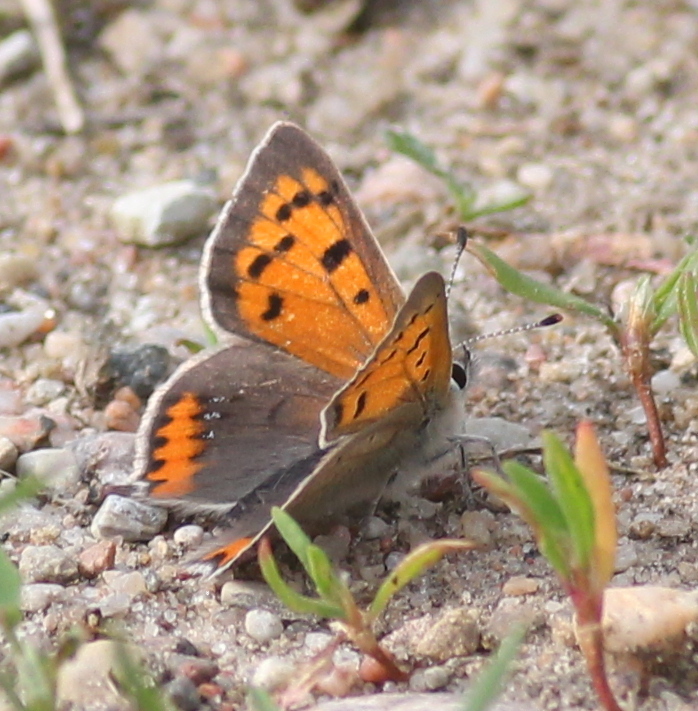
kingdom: Animalia
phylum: Arthropoda
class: Insecta
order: Lepidoptera
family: Lycaenidae
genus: Lycaena
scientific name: Lycaena phlaeas
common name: Small copper
